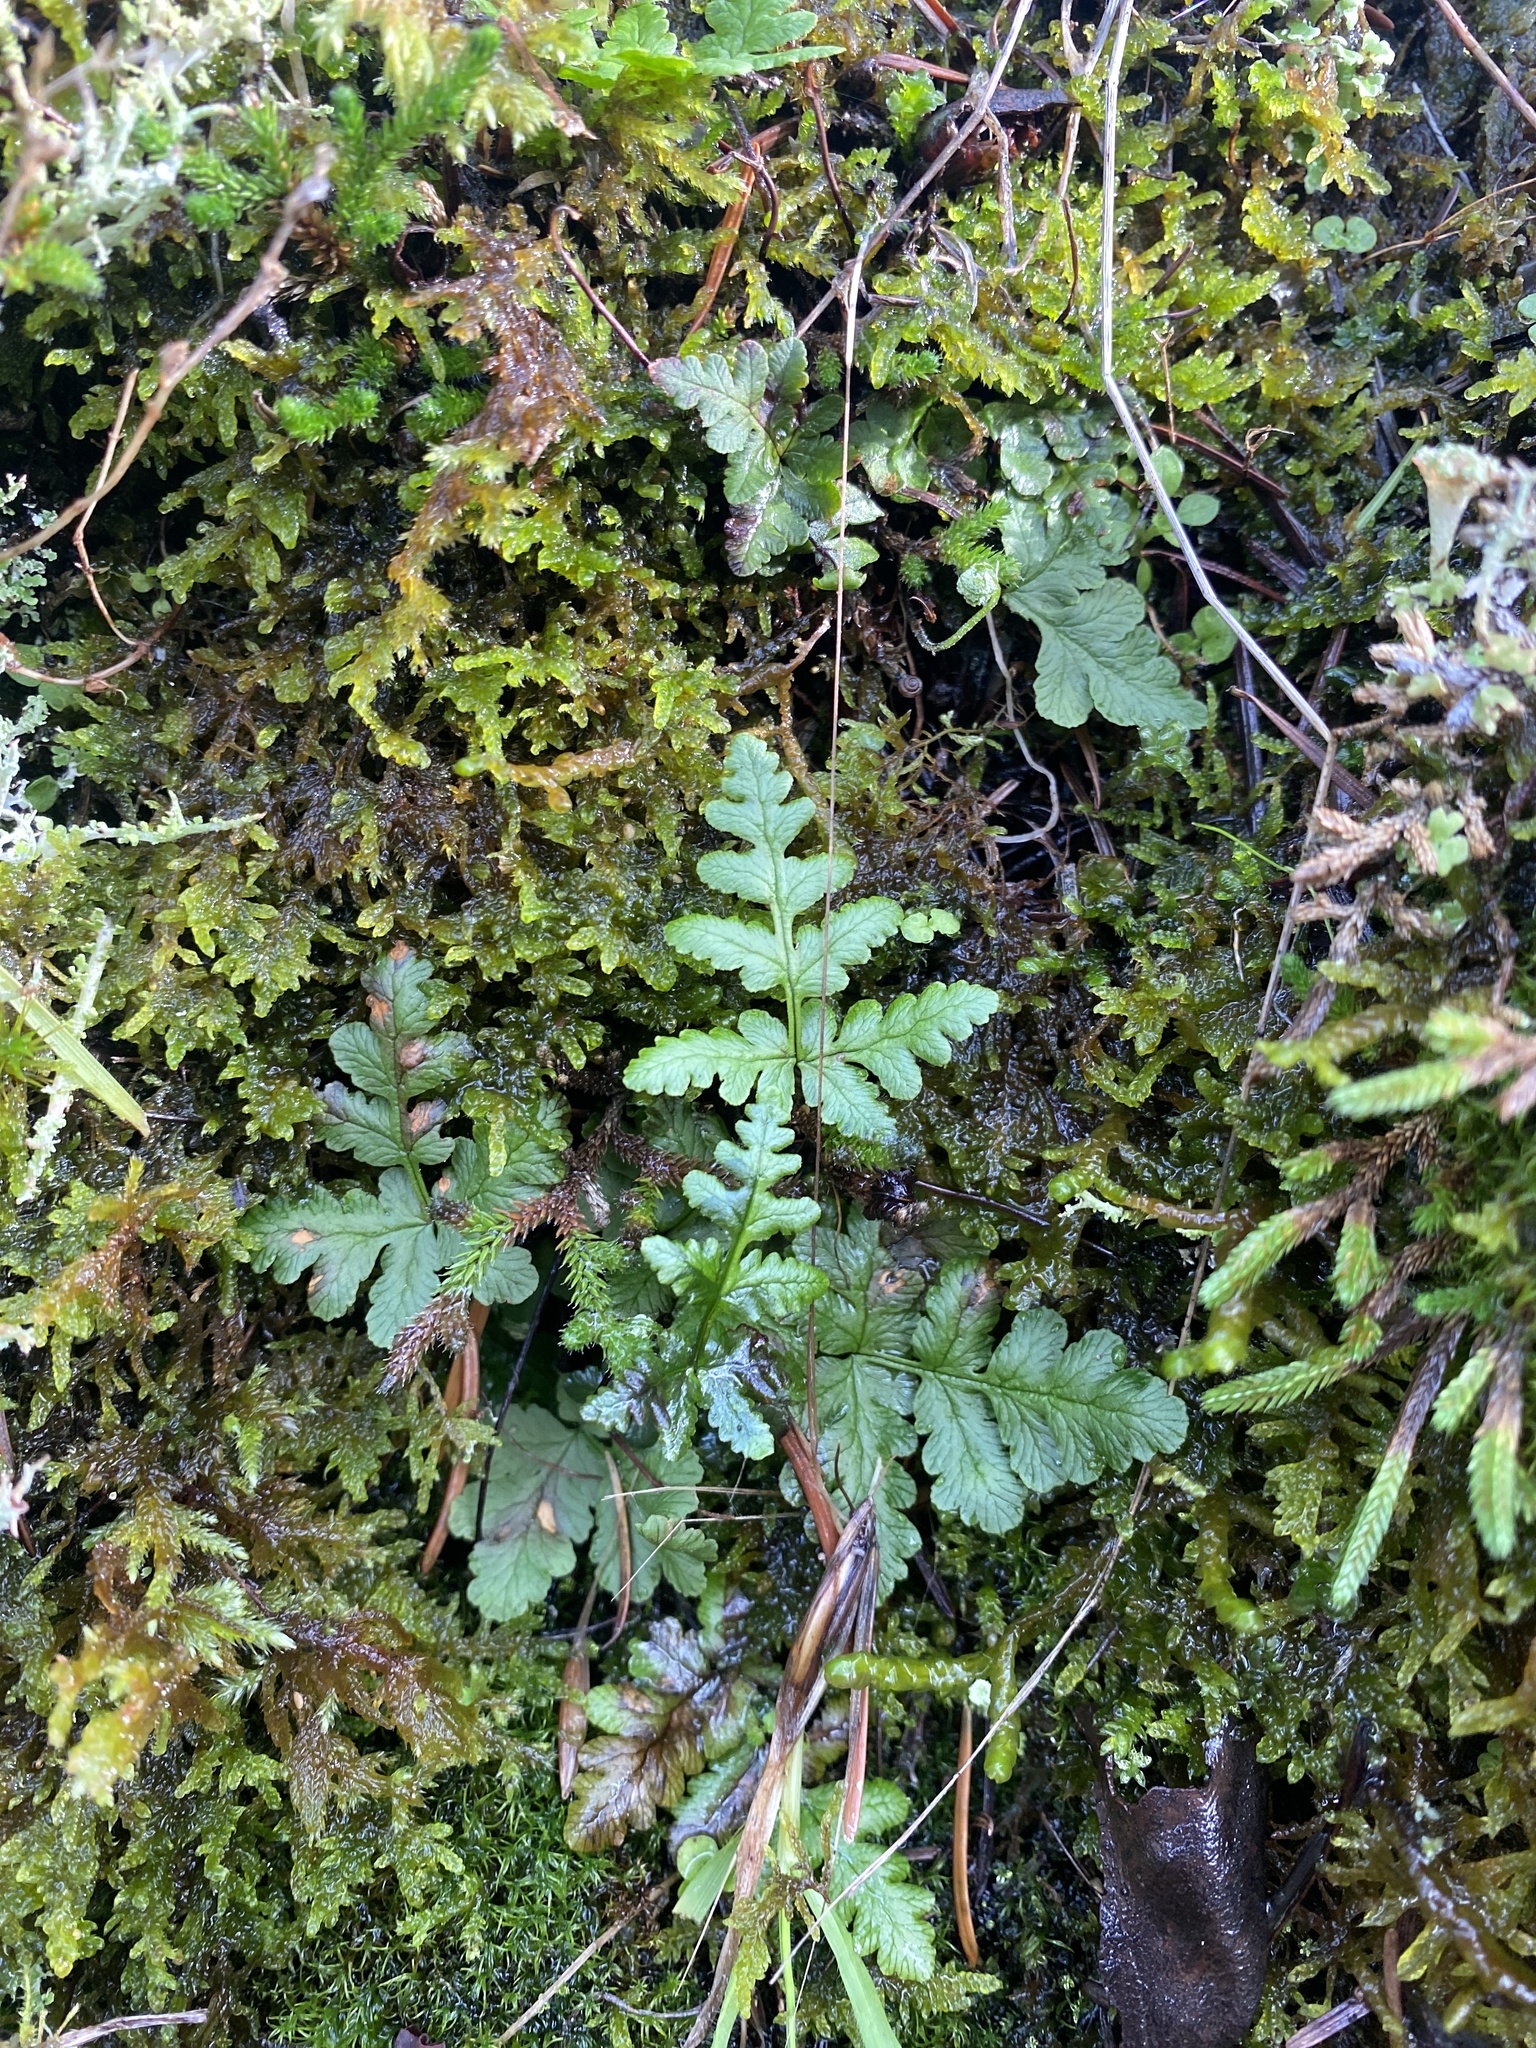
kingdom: Plantae
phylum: Tracheophyta
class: Polypodiopsida
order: Polypodiales
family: Pteridaceae
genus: Pentagramma
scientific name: Pentagramma triangularis
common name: Gold fern
